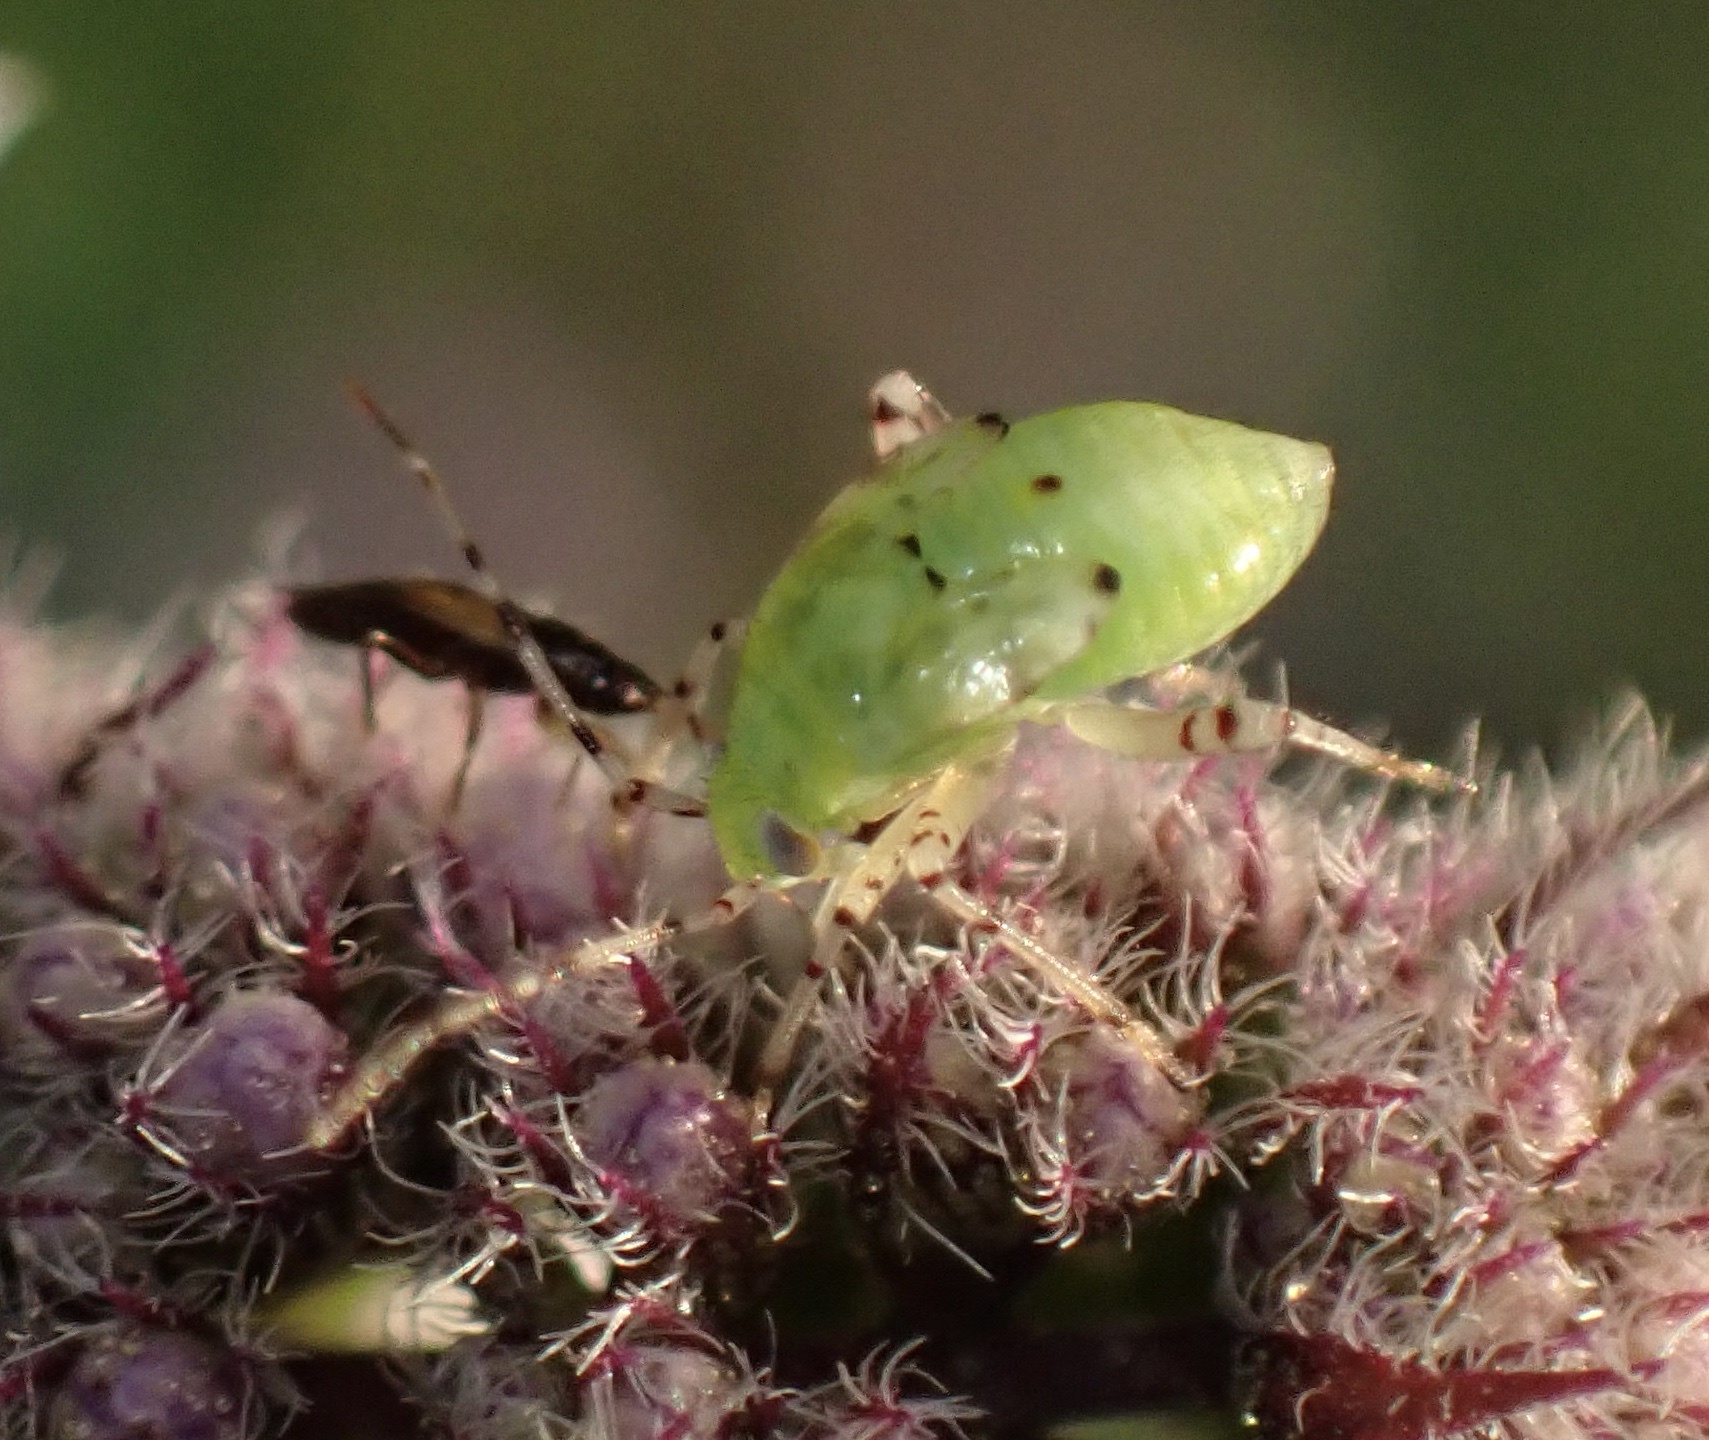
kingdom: Animalia
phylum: Arthropoda
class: Insecta
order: Hemiptera
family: Miridae
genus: Liocoris
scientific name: Liocoris tripustulatus
